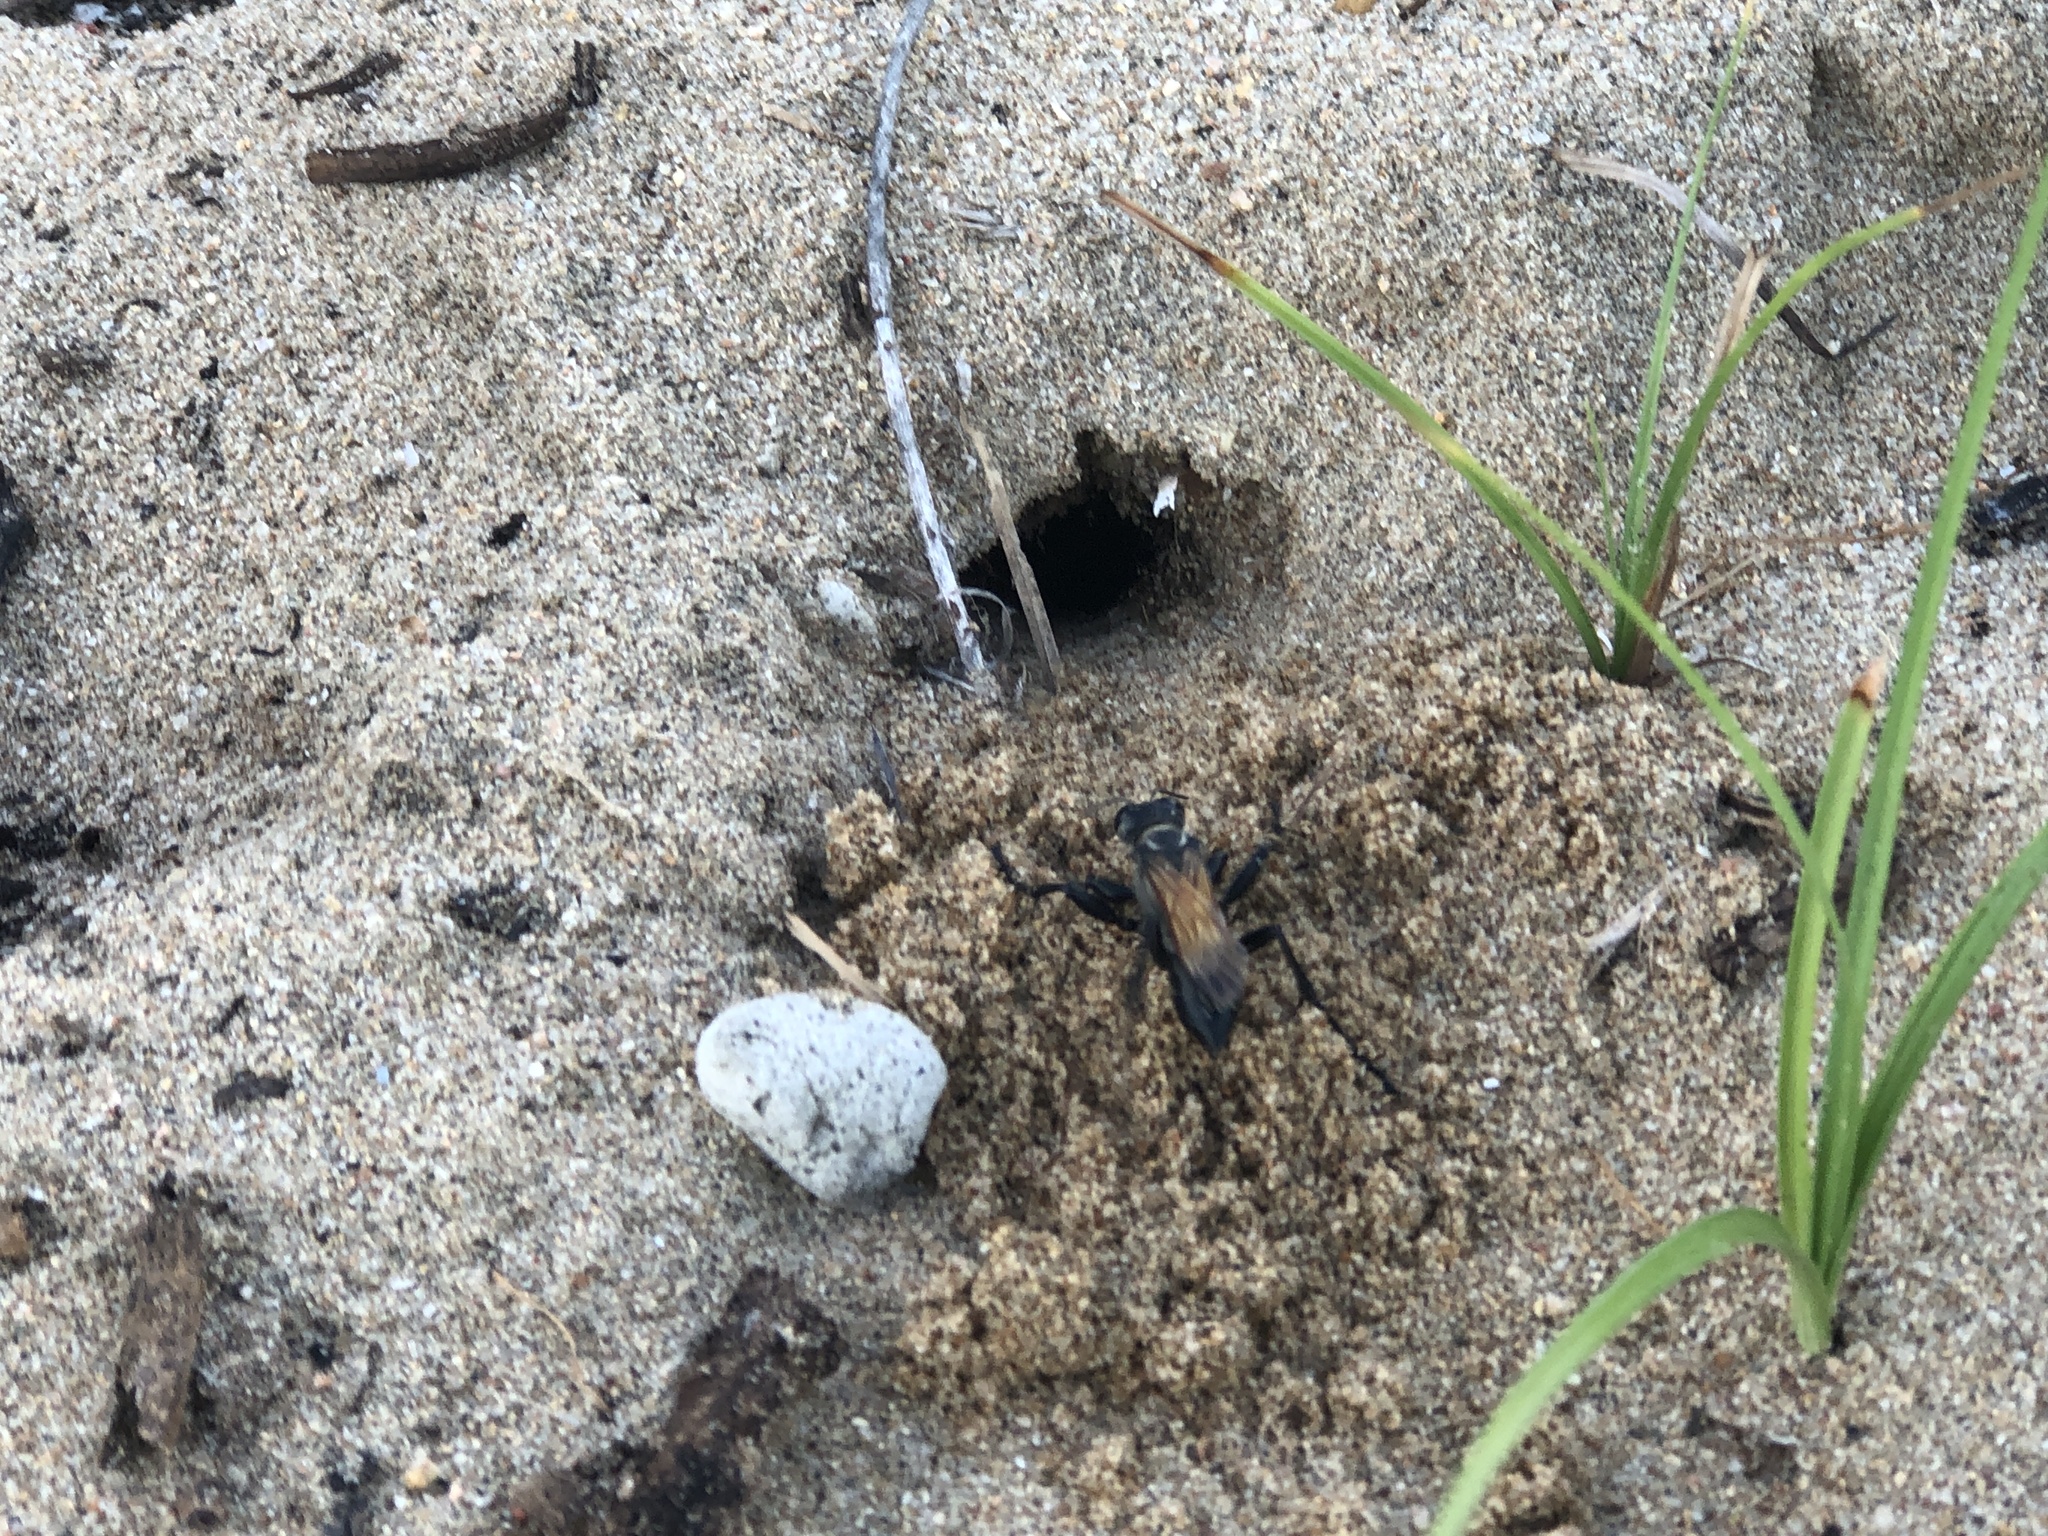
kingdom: Animalia
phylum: Arthropoda
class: Insecta
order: Hymenoptera
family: Sphecidae
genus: Prionyx
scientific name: Prionyx saevus
